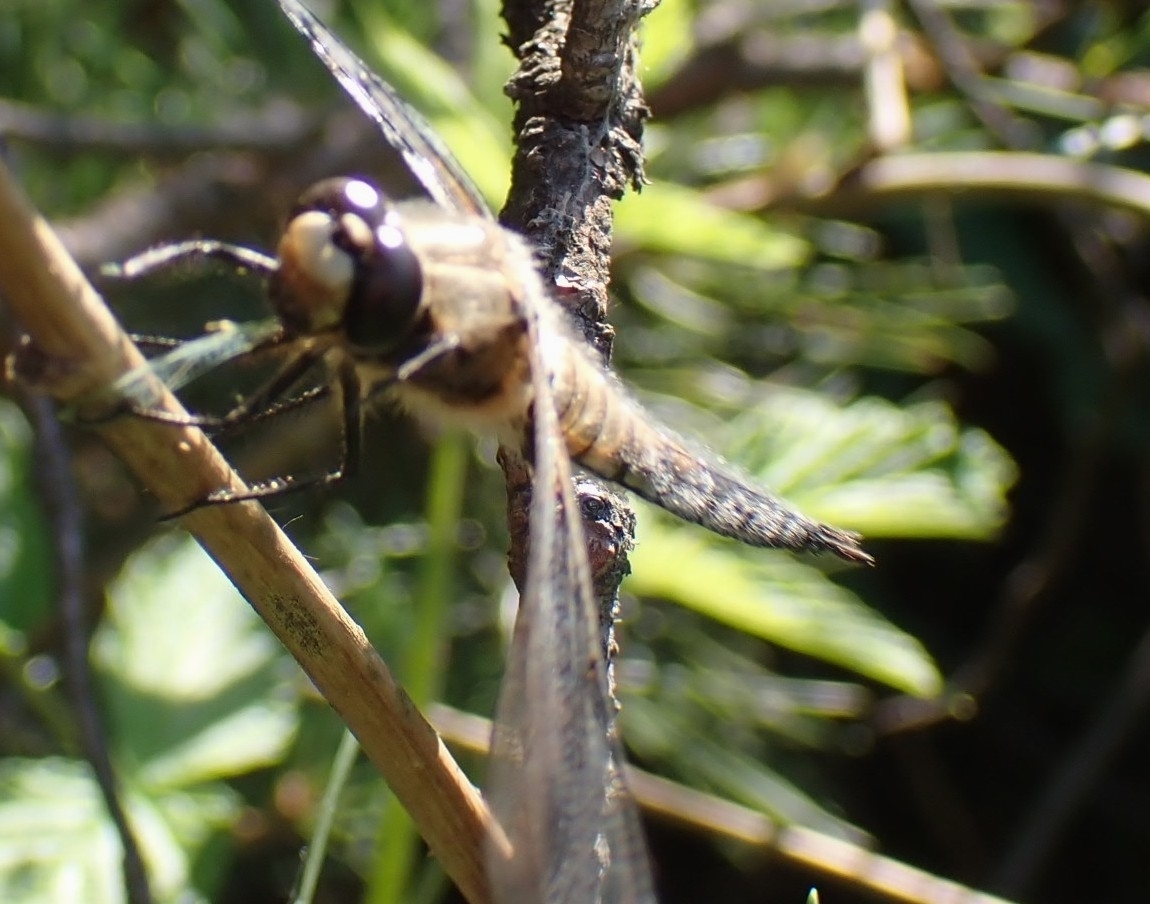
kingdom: Animalia
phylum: Arthropoda
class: Insecta
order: Odonata
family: Libellulidae
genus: Libellula
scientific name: Libellula quadrimaculata
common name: Four-spotted chaser
